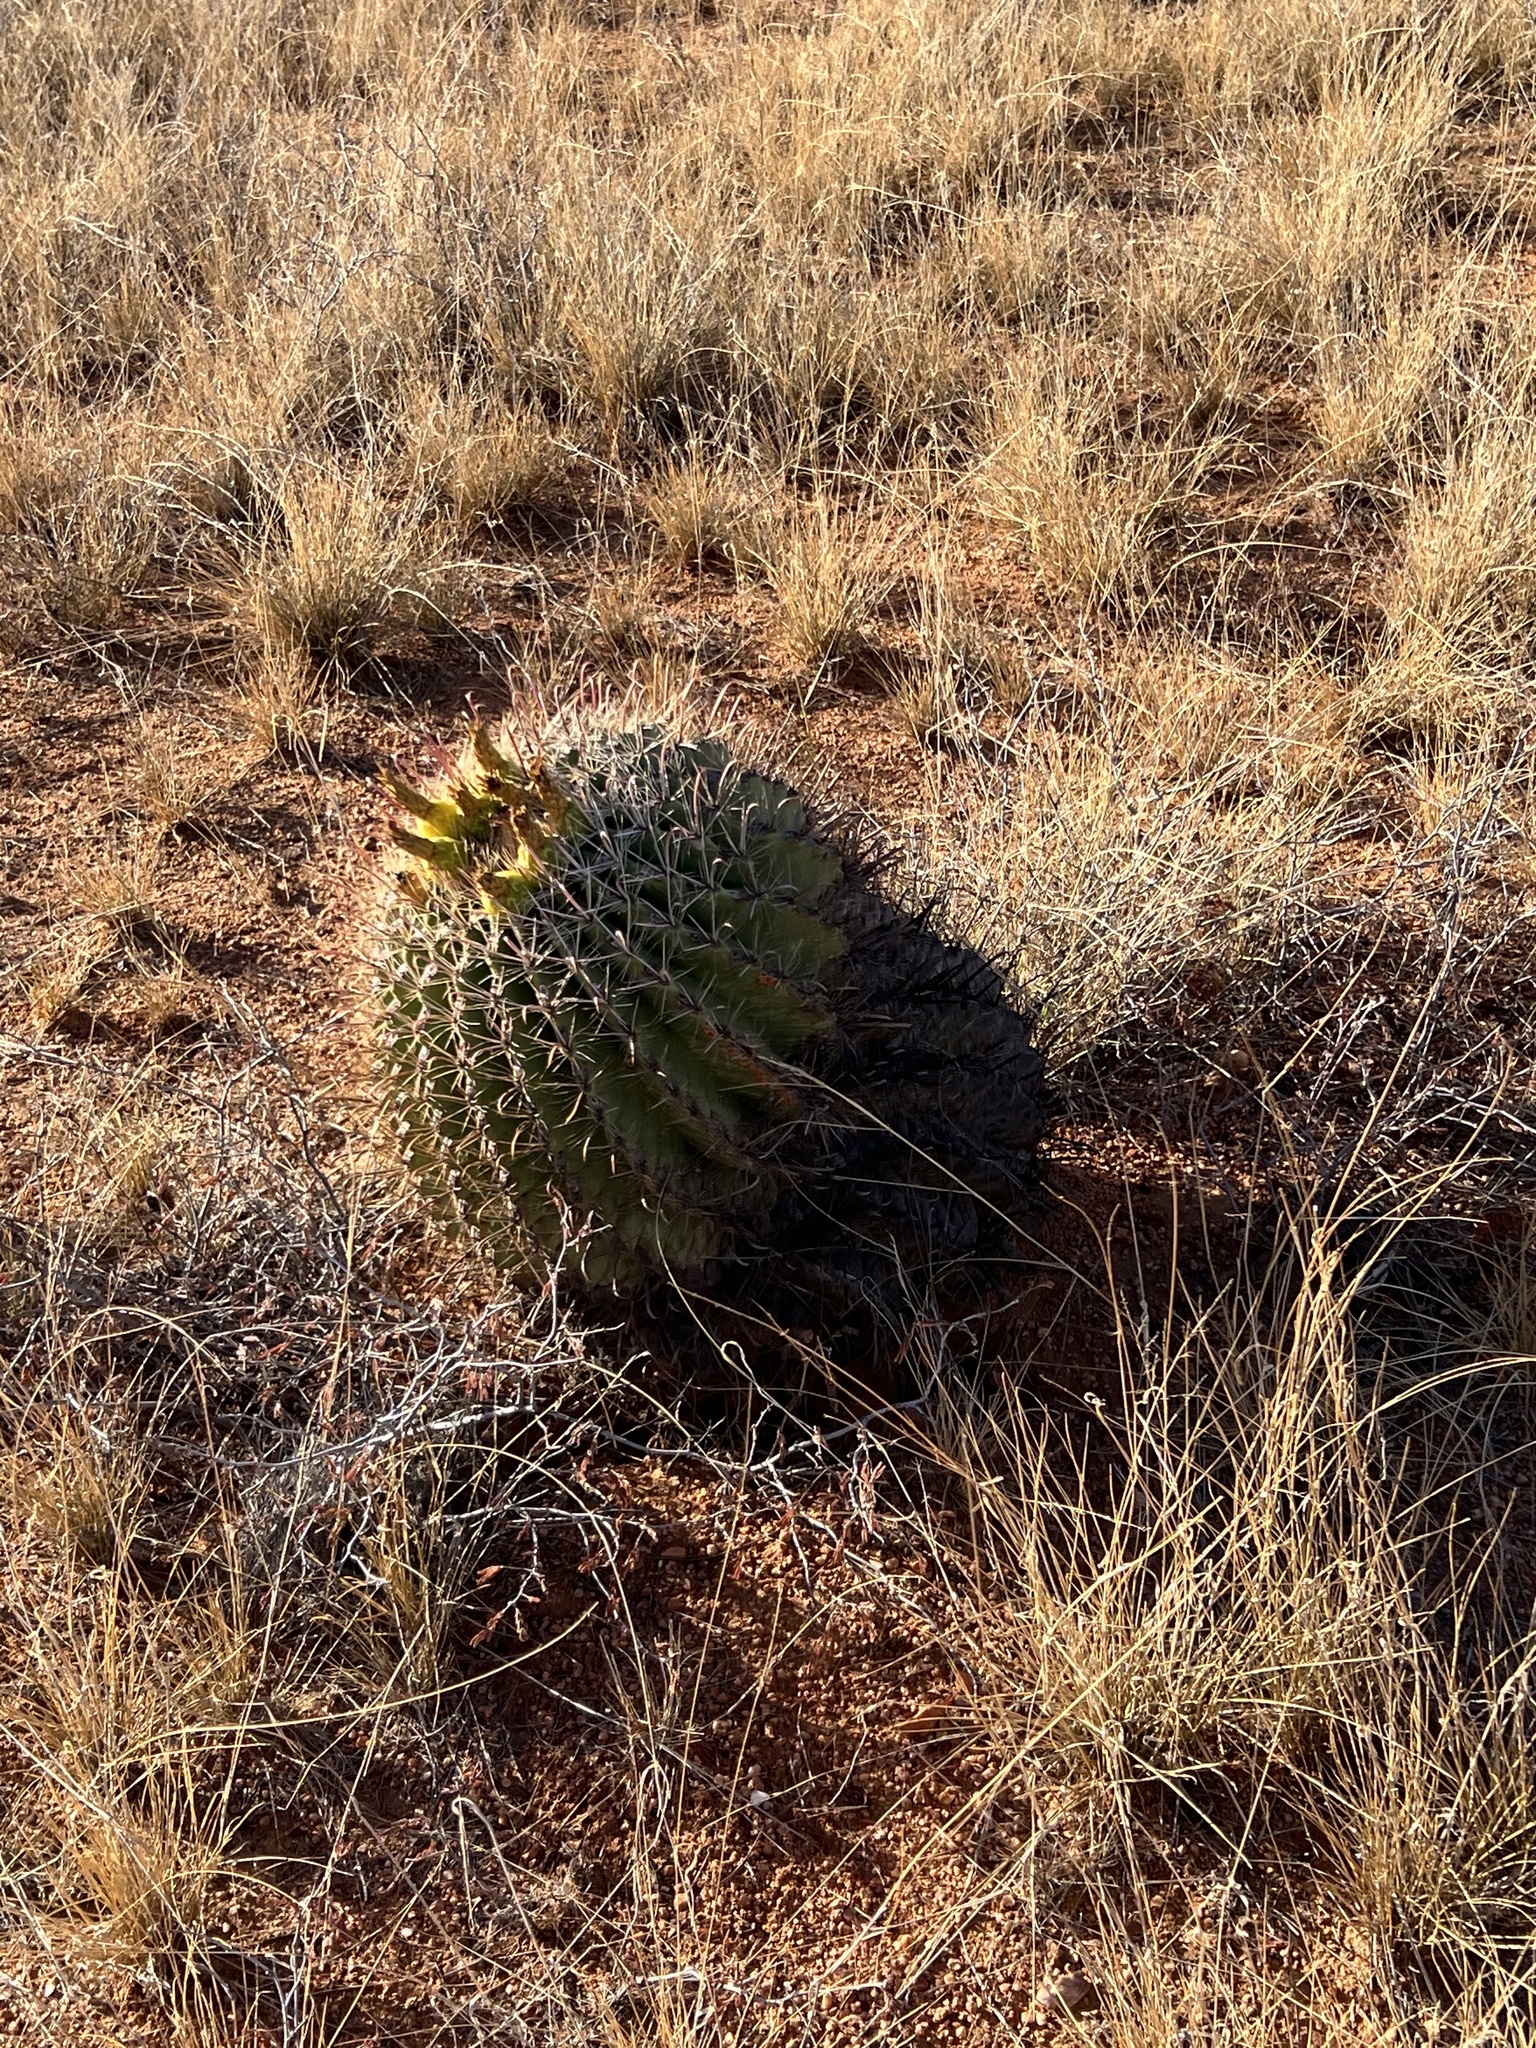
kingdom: Plantae
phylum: Tracheophyta
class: Magnoliopsida
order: Caryophyllales
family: Cactaceae
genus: Ferocactus
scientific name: Ferocactus wislizeni
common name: Candy barrel cactus
